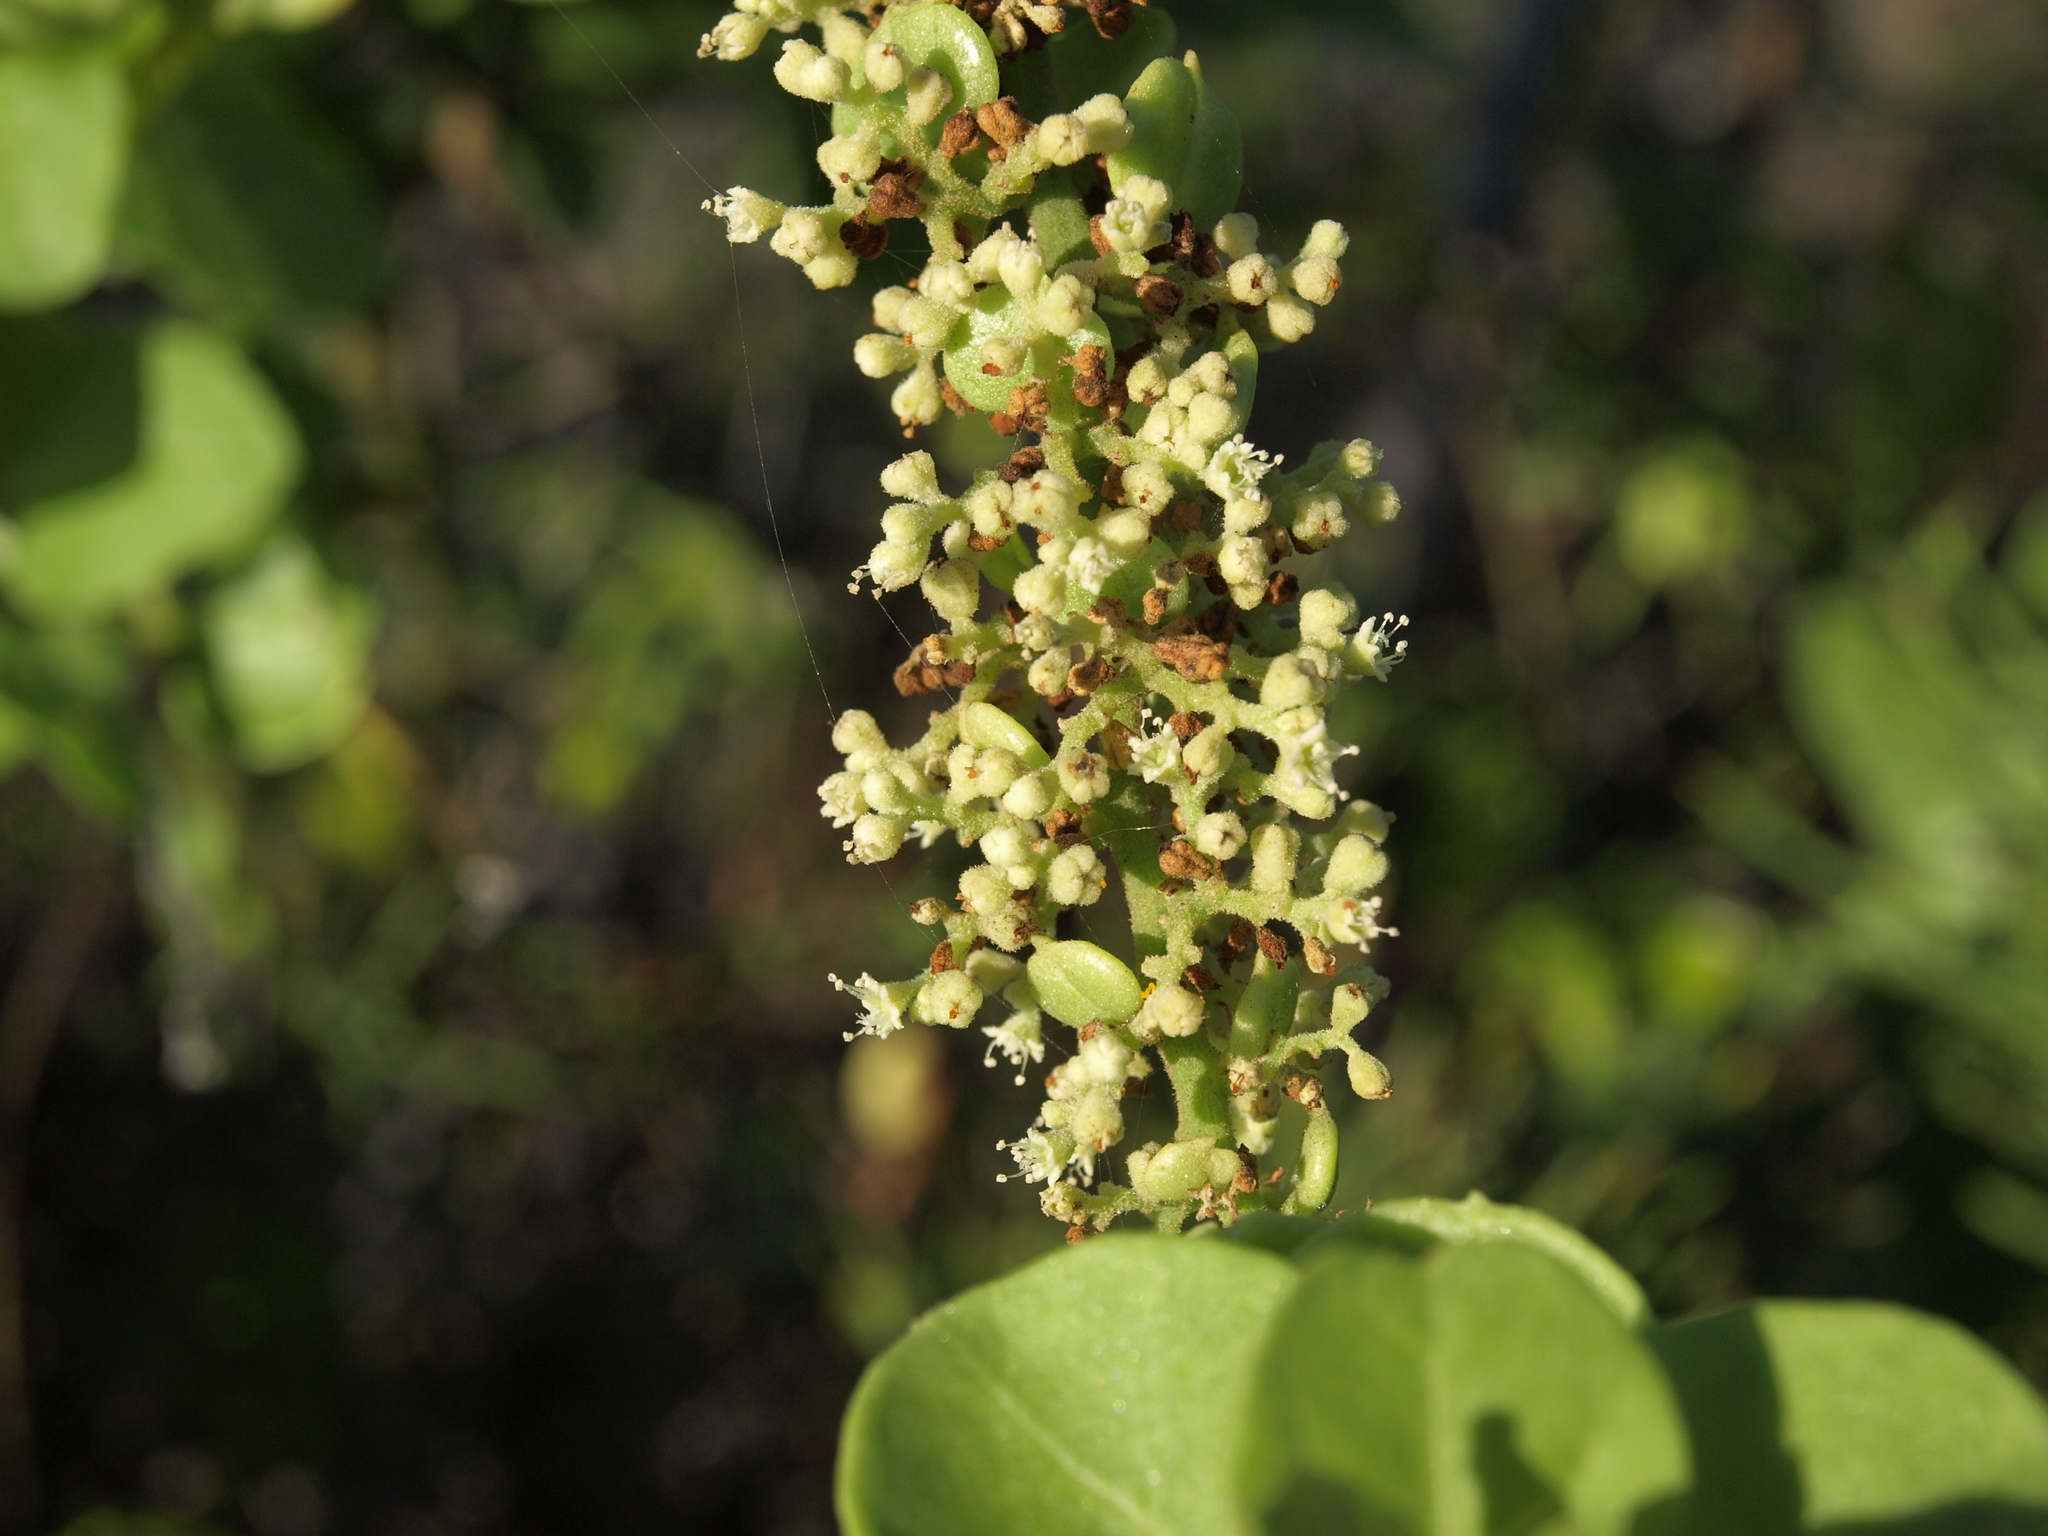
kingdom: Plantae
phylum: Tracheophyta
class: Magnoliopsida
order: Caryophyllales
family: Nyctaginaceae
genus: Cryptocarpus
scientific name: Cryptocarpus pyriformis
